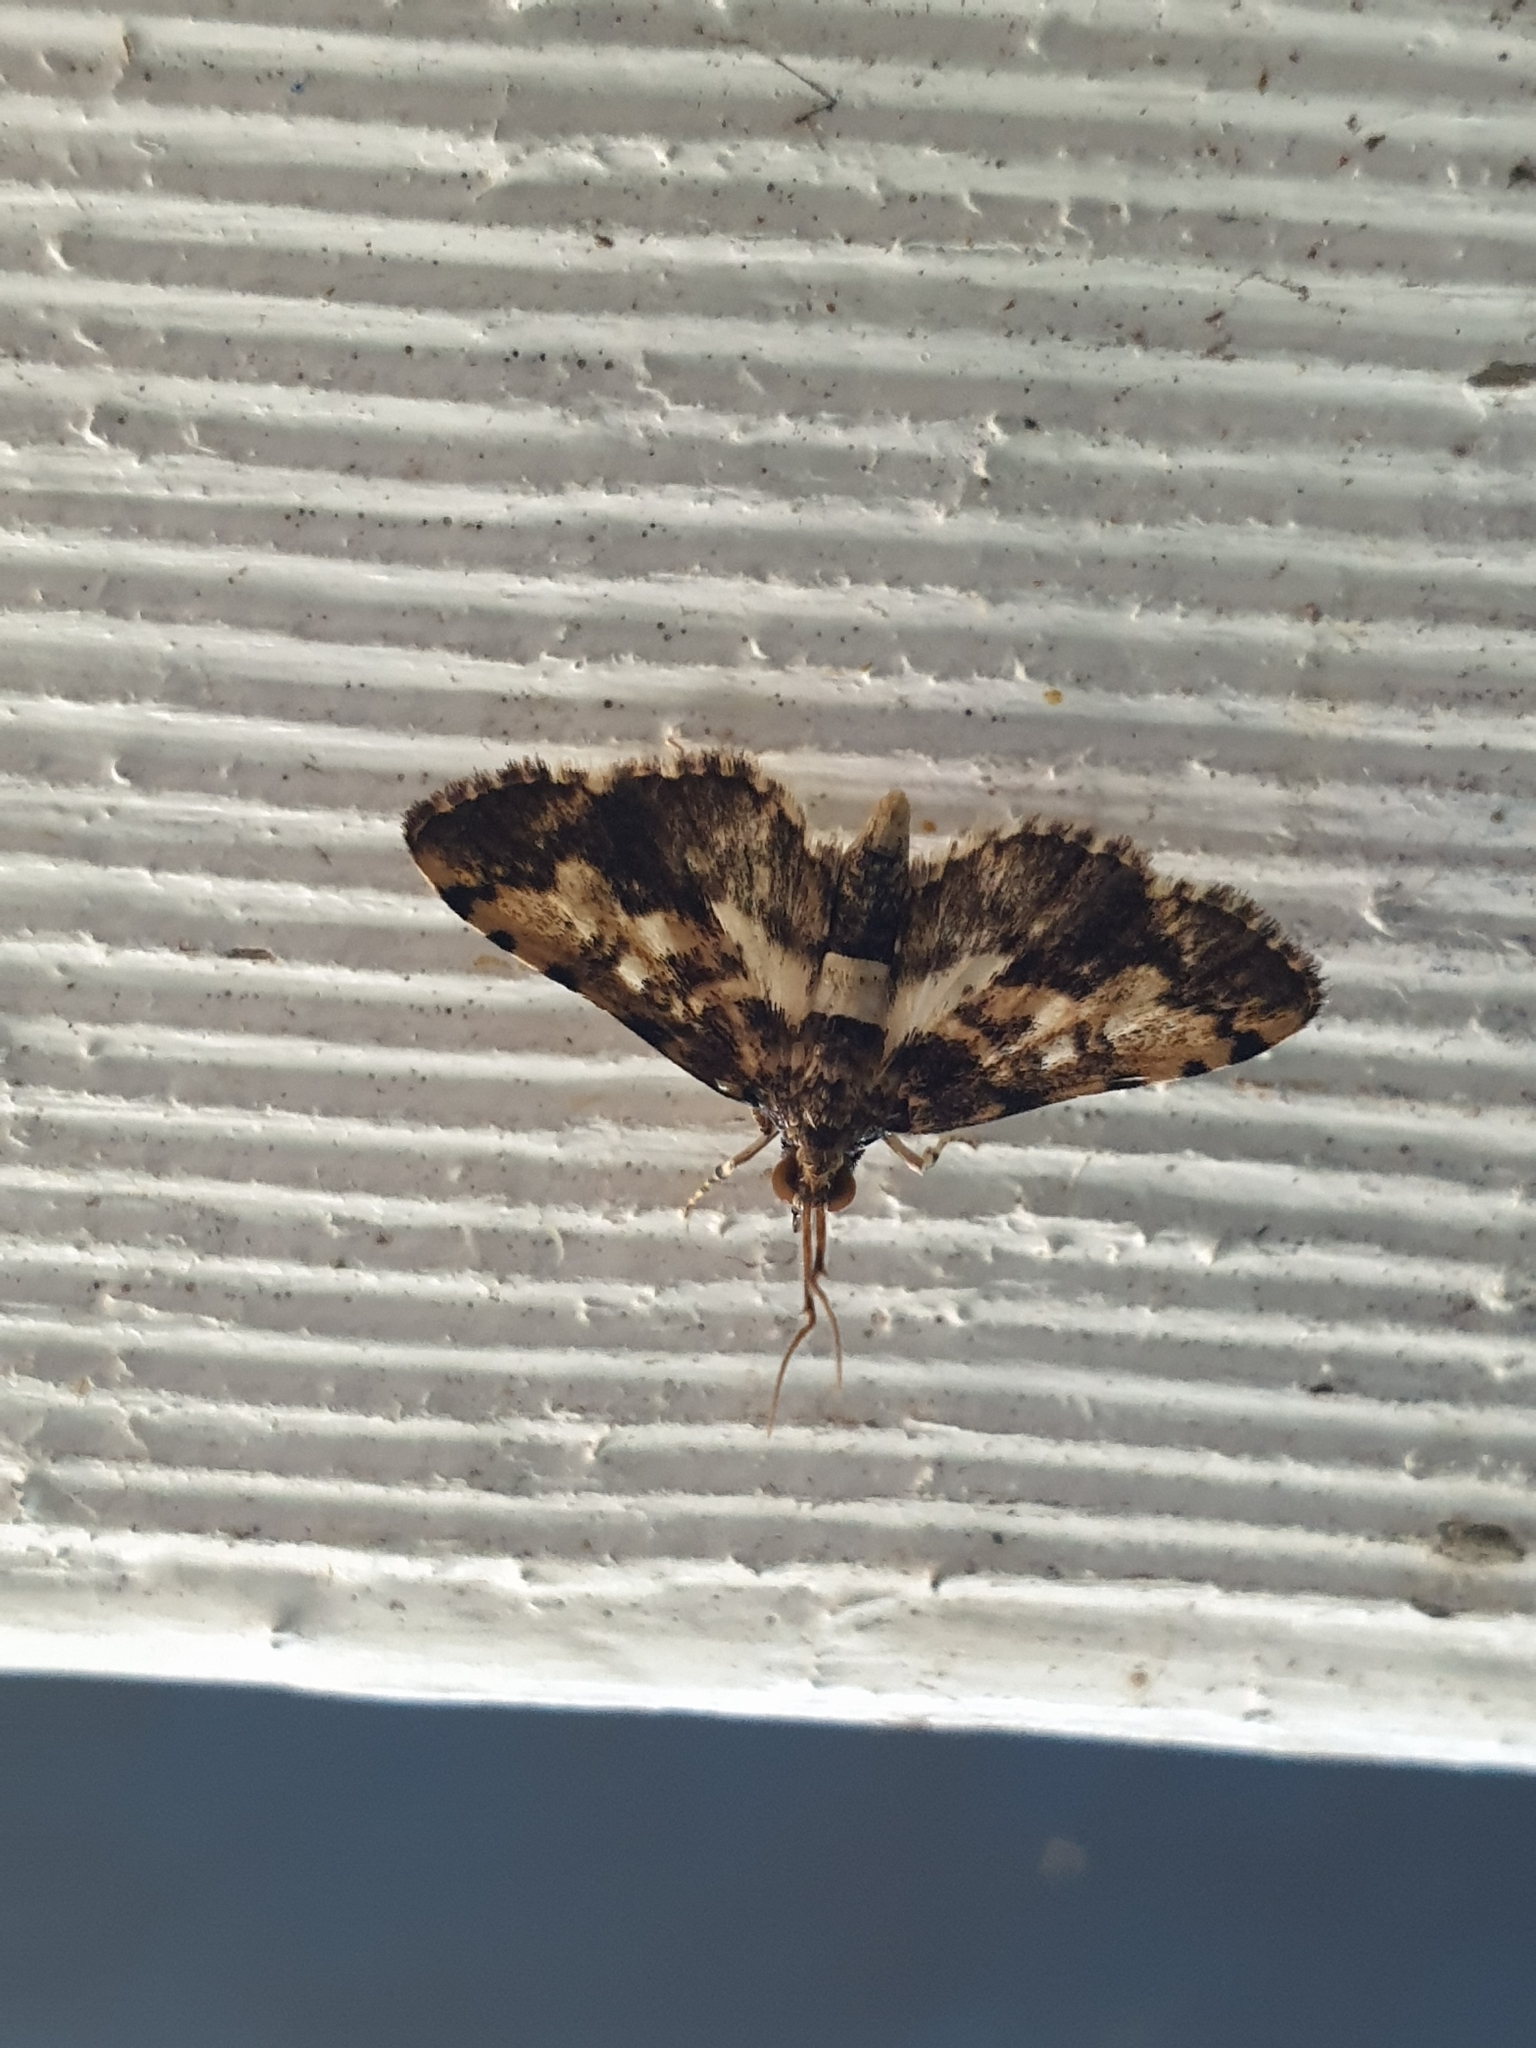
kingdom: Animalia
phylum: Arthropoda
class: Insecta
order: Lepidoptera
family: Crambidae
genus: Nacoleia
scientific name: Nacoleia amphicedalis
